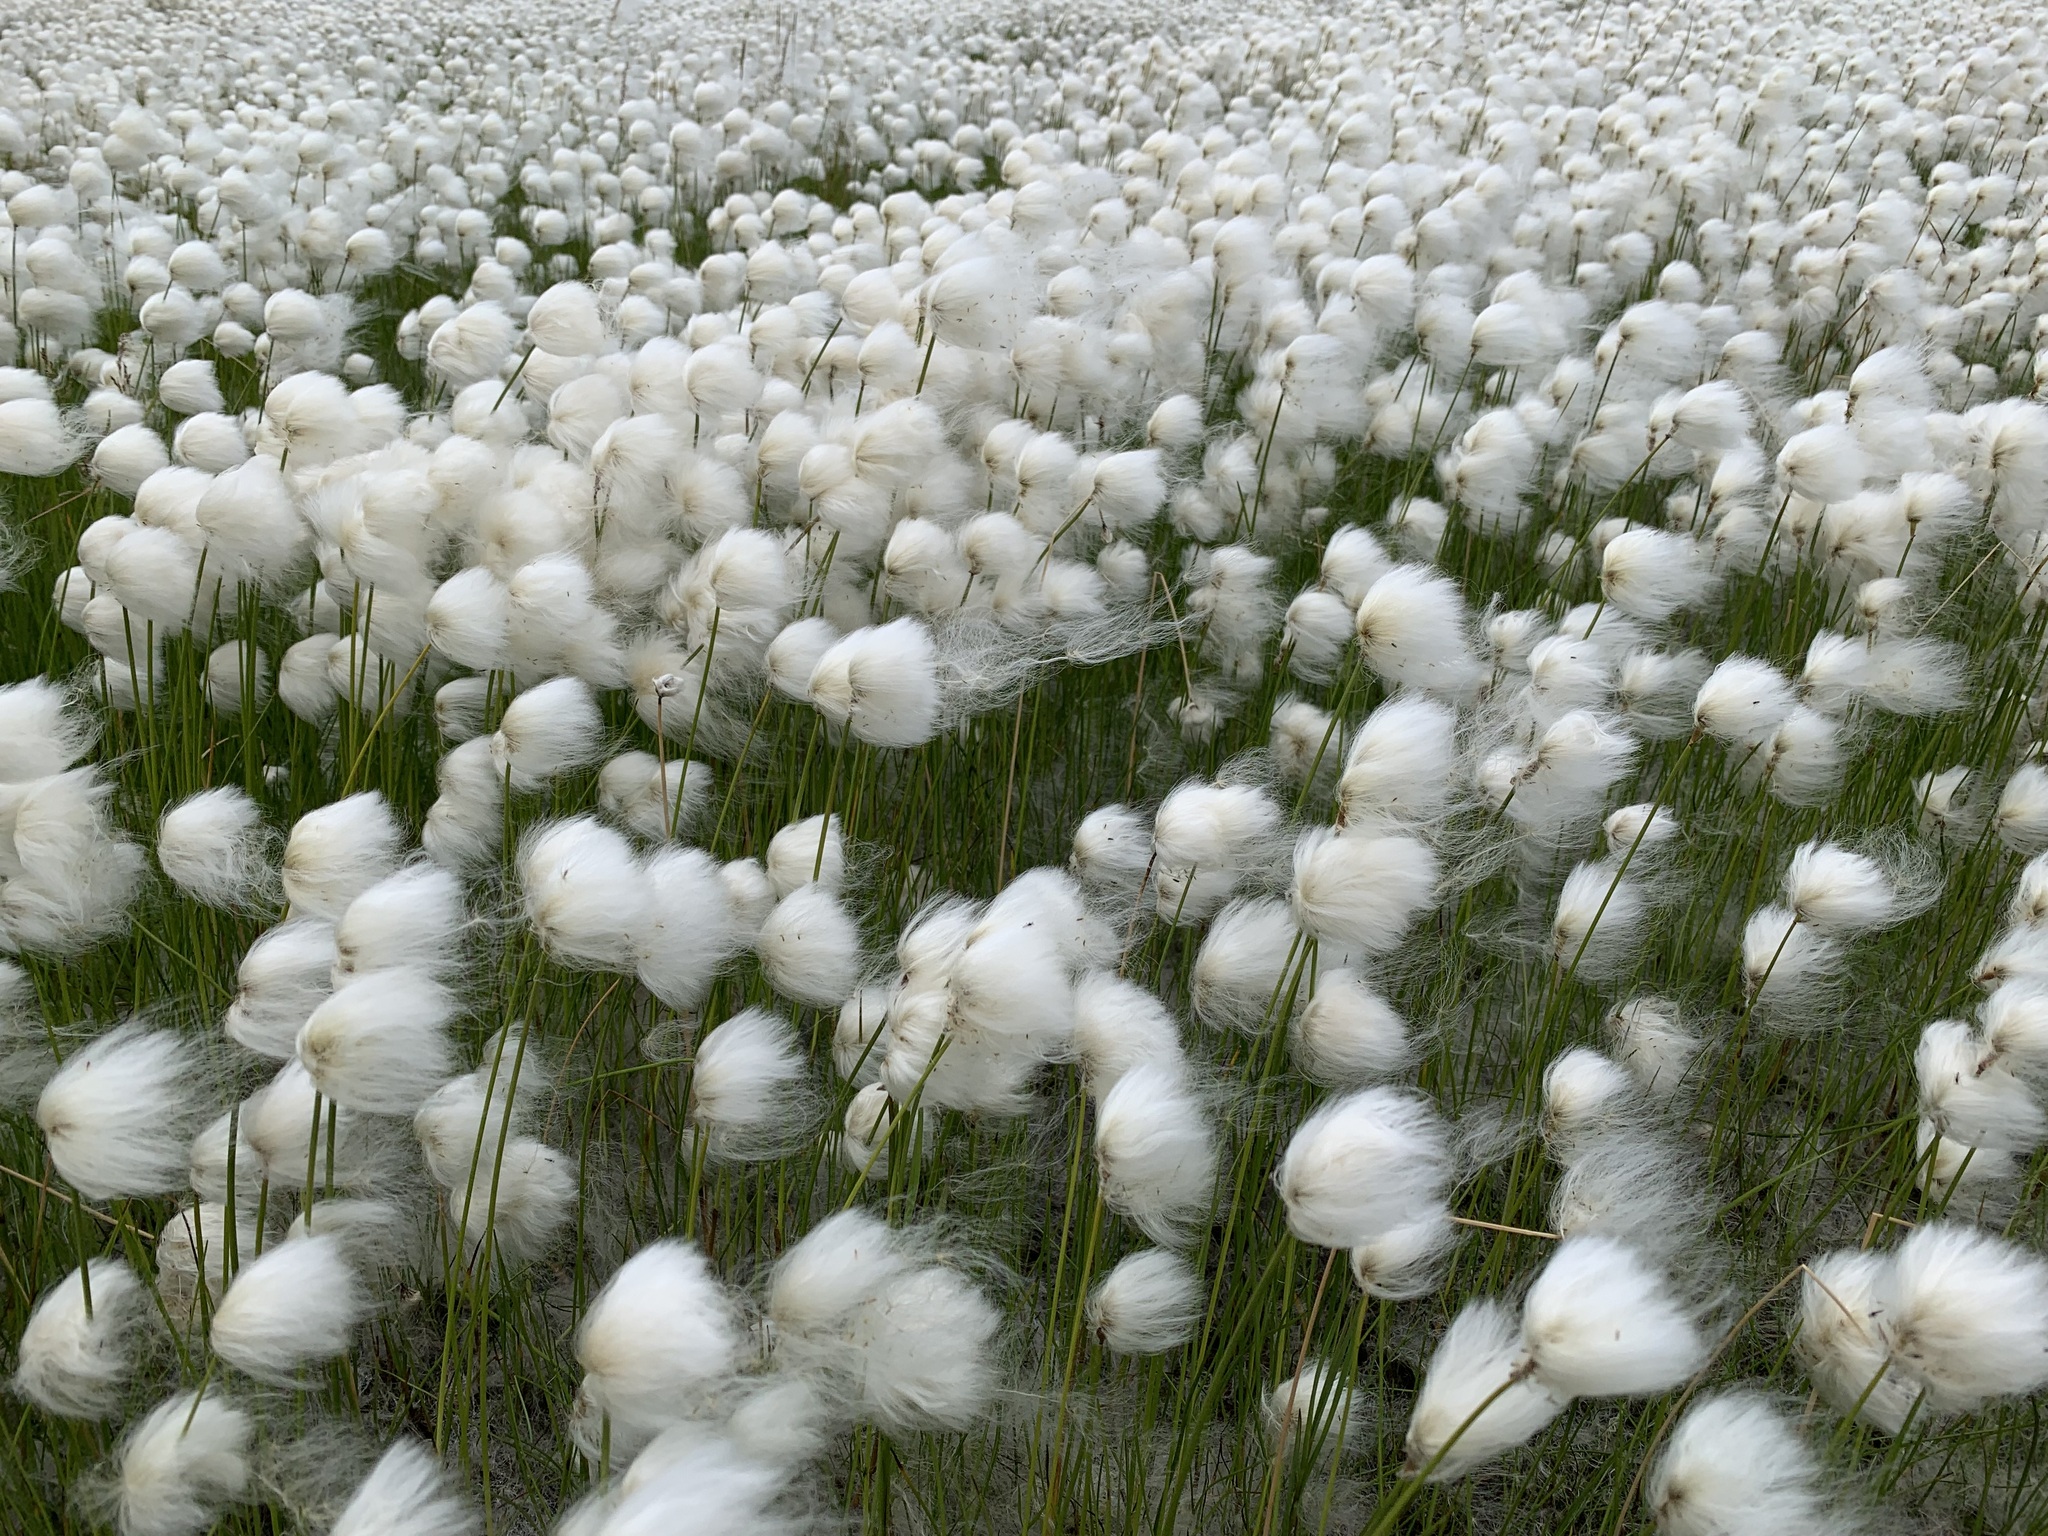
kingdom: Plantae
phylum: Tracheophyta
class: Liliopsida
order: Poales
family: Cyperaceae
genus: Eriophorum
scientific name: Eriophorum scheuchzeri
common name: Scheuchzer's cottongrass
